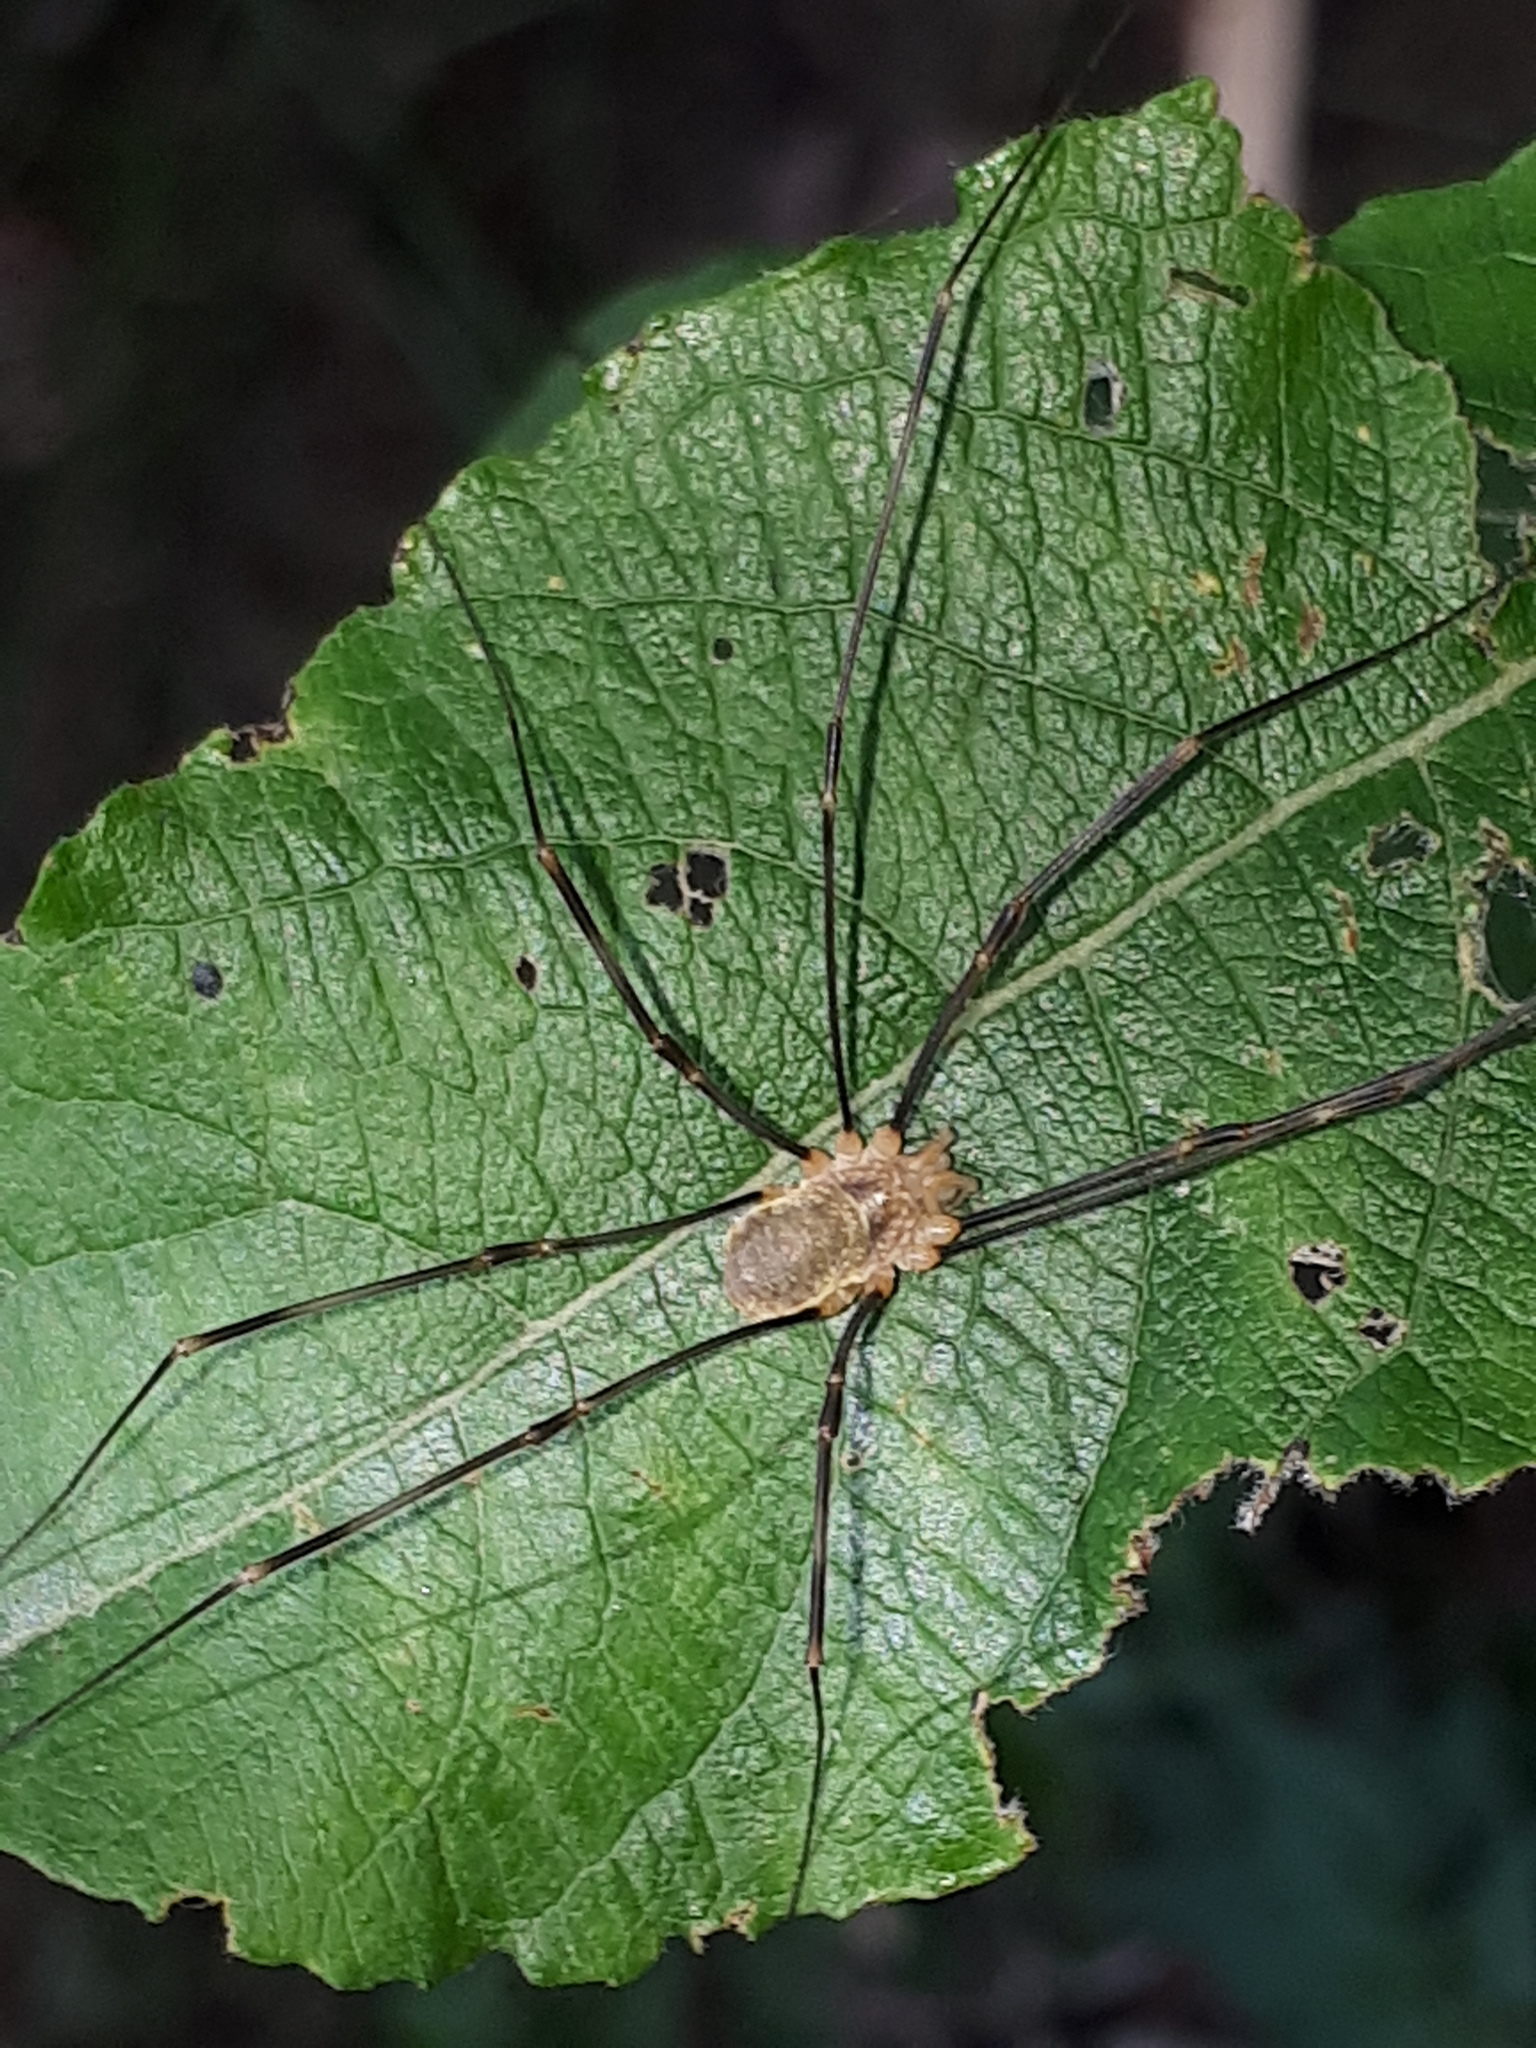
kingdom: Animalia
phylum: Arthropoda
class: Arachnida
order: Opiliones
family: Phalangiidae
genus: Opilio
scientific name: Opilio canestrinii
